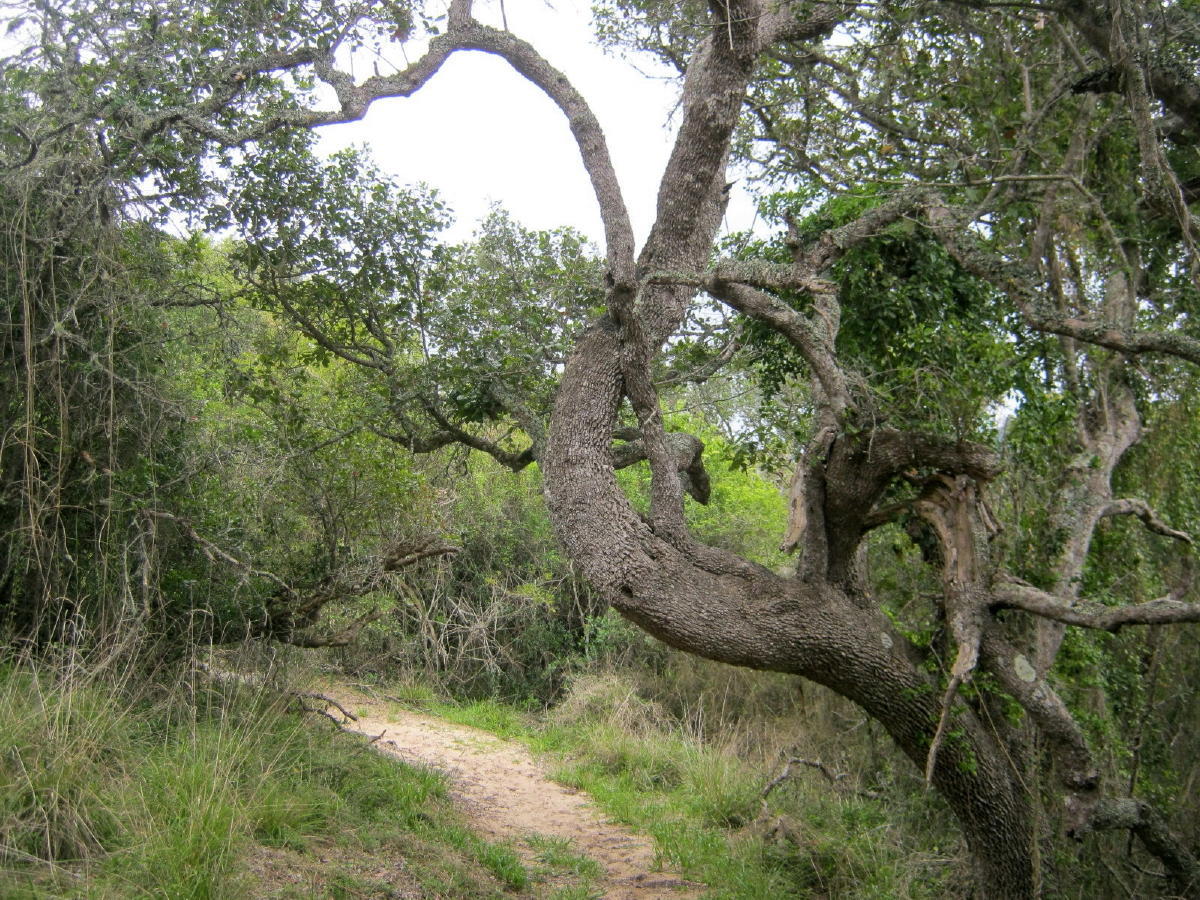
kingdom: Plantae
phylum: Tracheophyta
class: Magnoliopsida
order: Ericales
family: Sapotaceae
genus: Sideroxylon
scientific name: Sideroxylon inerme
